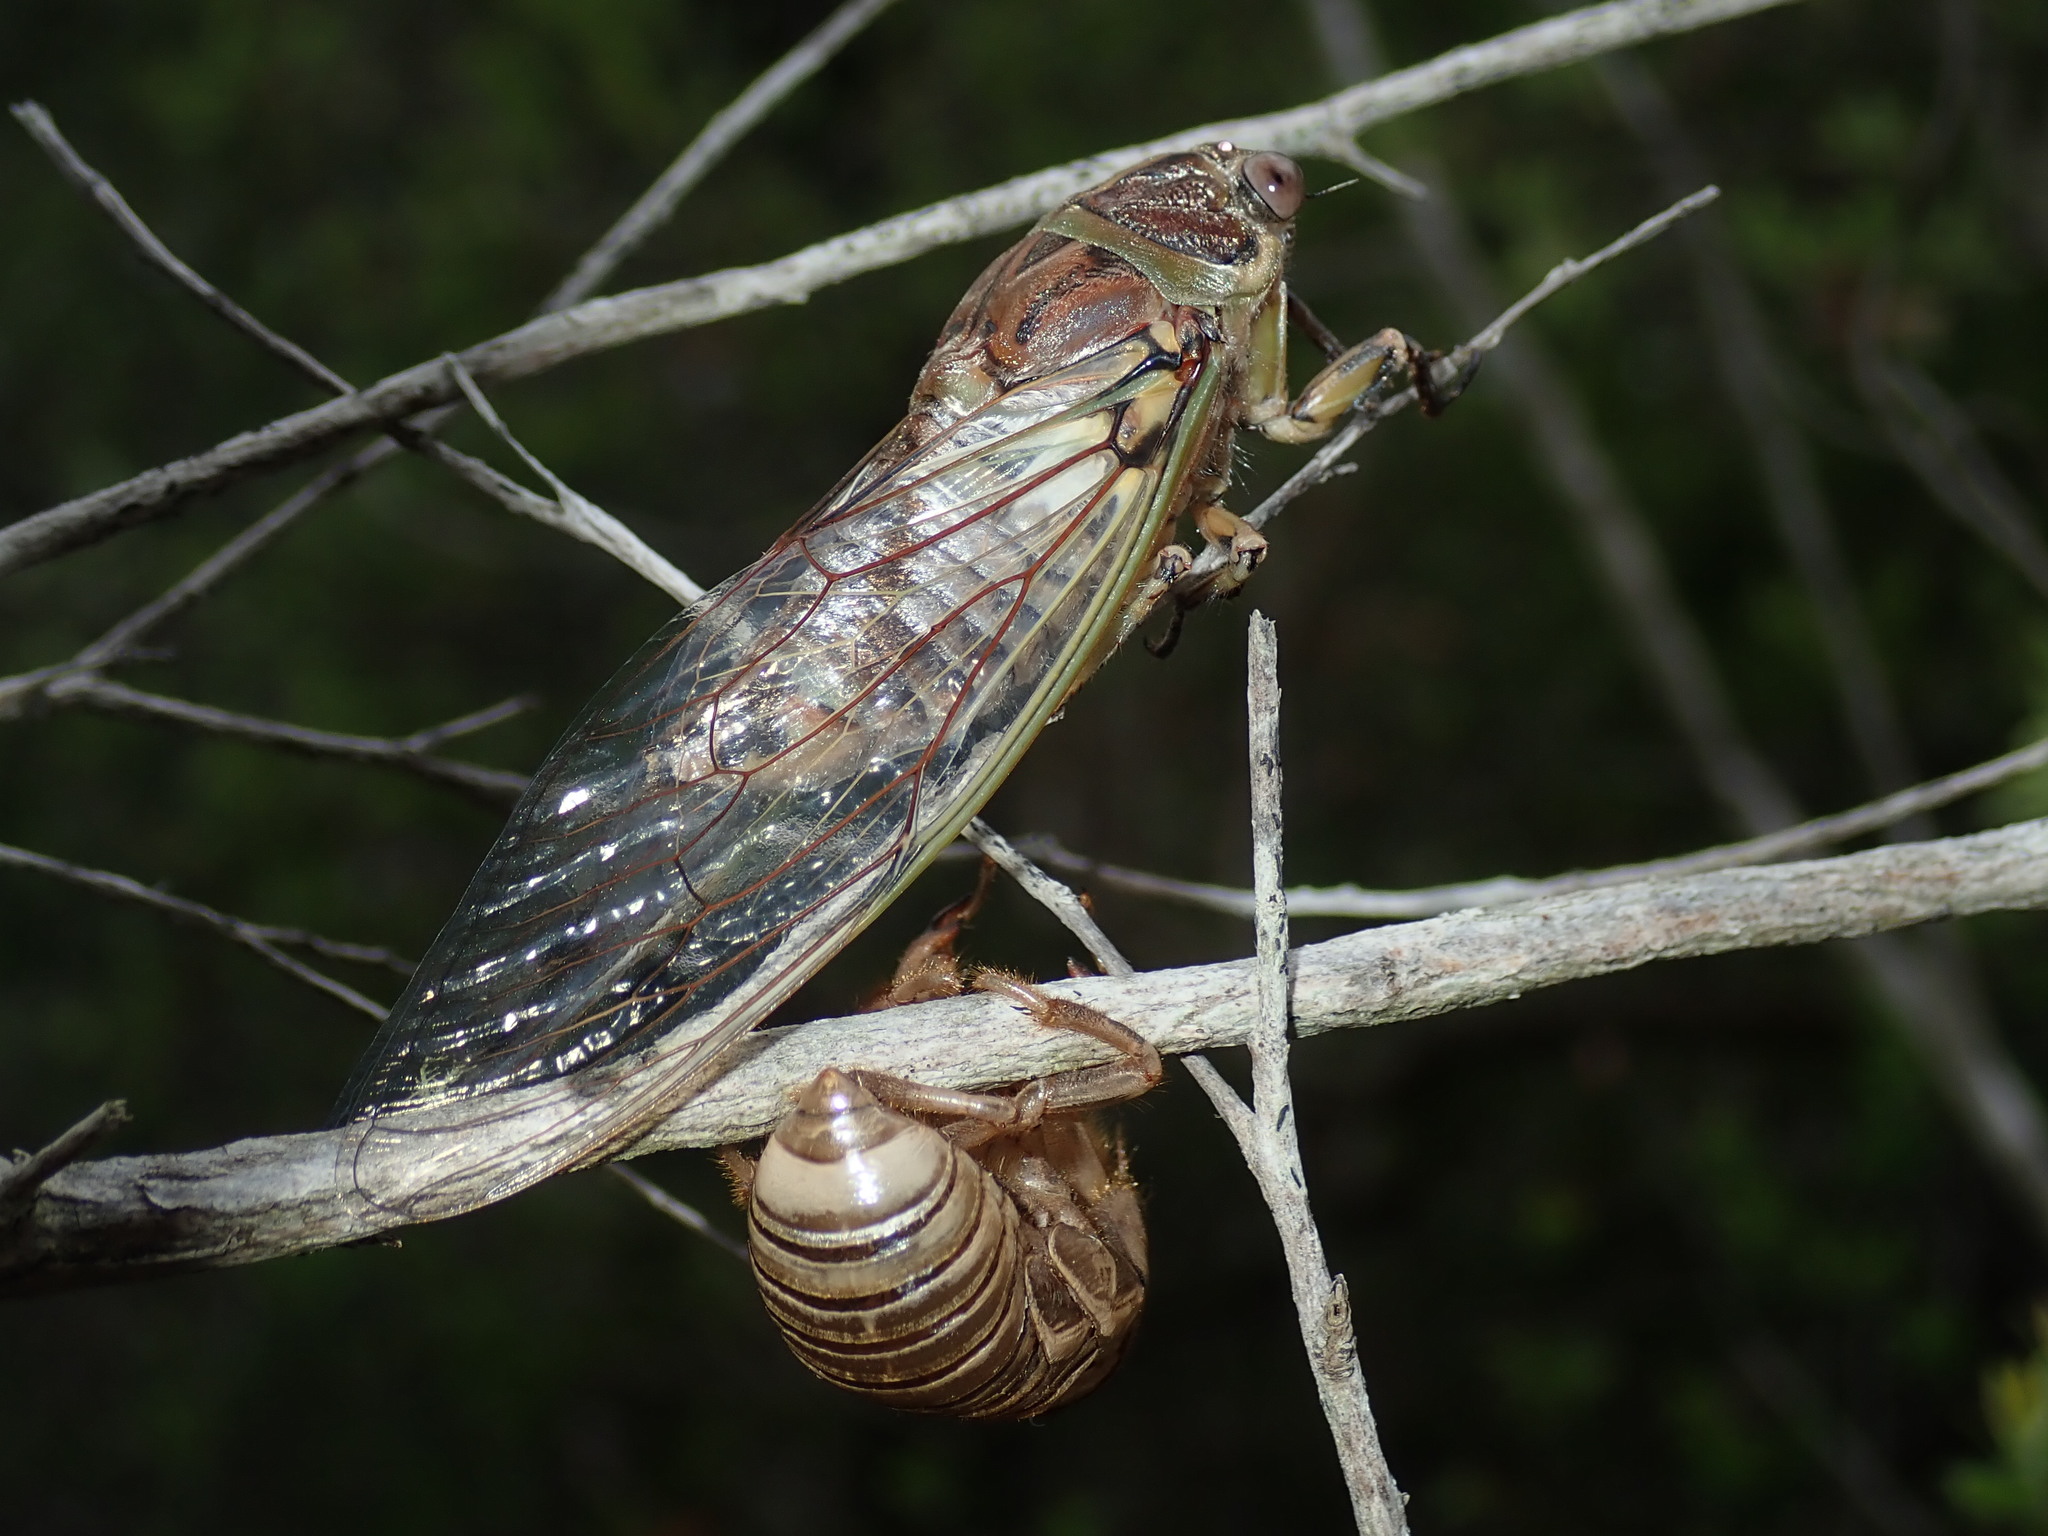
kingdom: Animalia
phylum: Arthropoda
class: Insecta
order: Hemiptera
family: Cicadidae
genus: Arunta
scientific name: Arunta perulata
